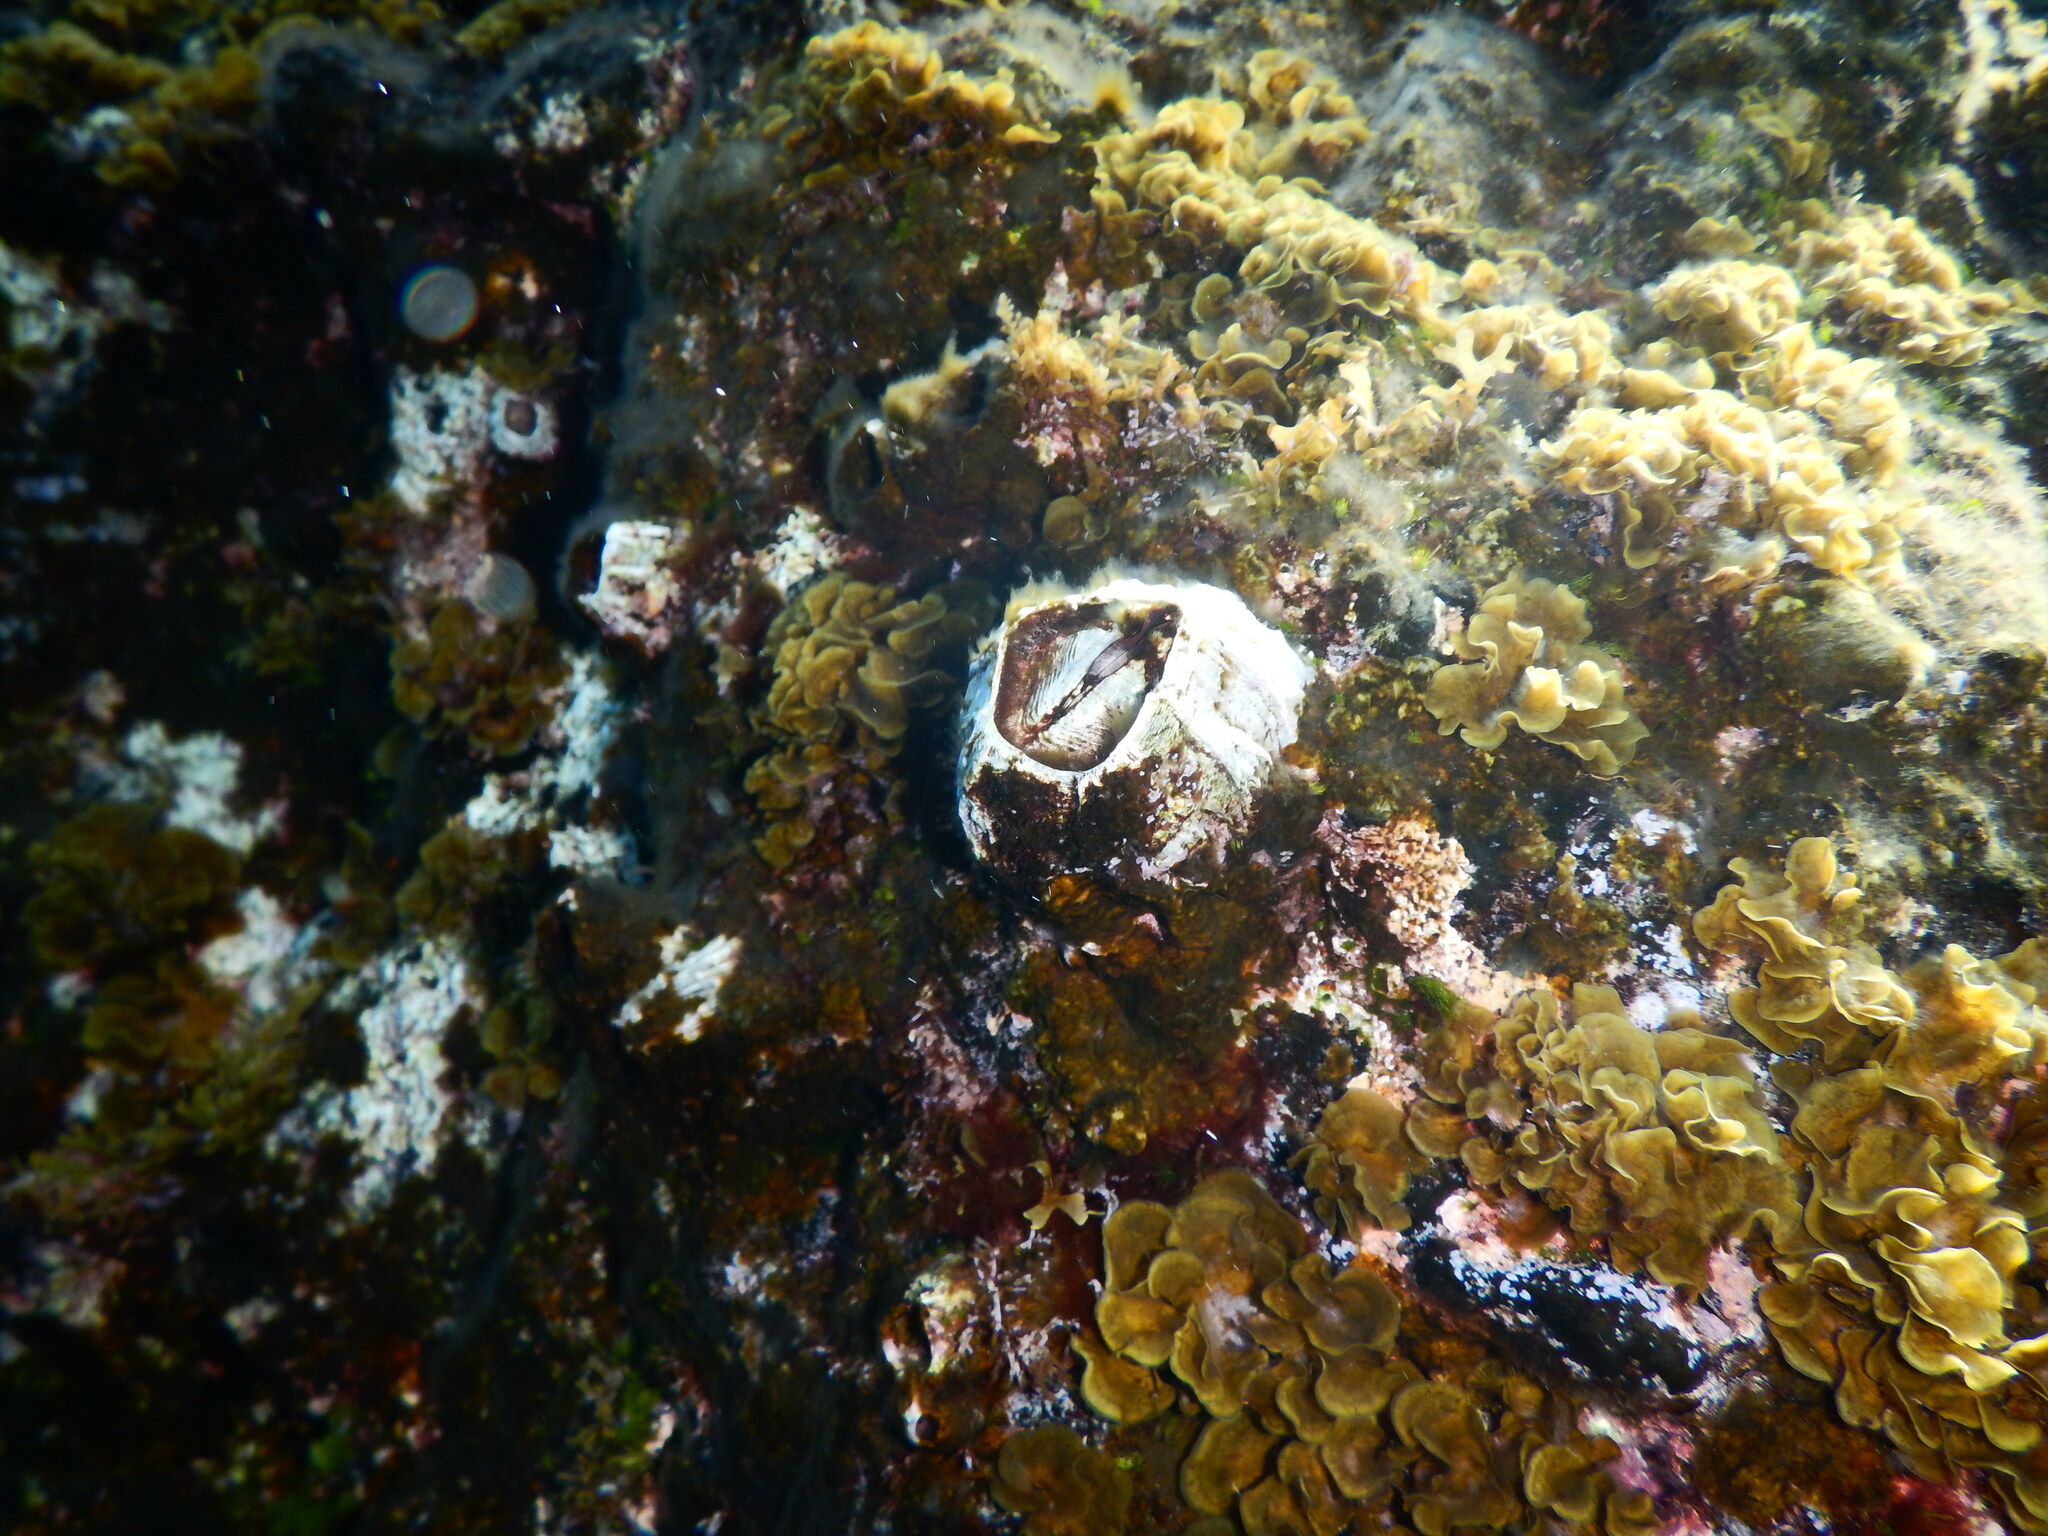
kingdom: Animalia
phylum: Arthropoda
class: Maxillopoda
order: Sessilia
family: Balanidae
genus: Megabalanus
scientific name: Megabalanus azoricus
